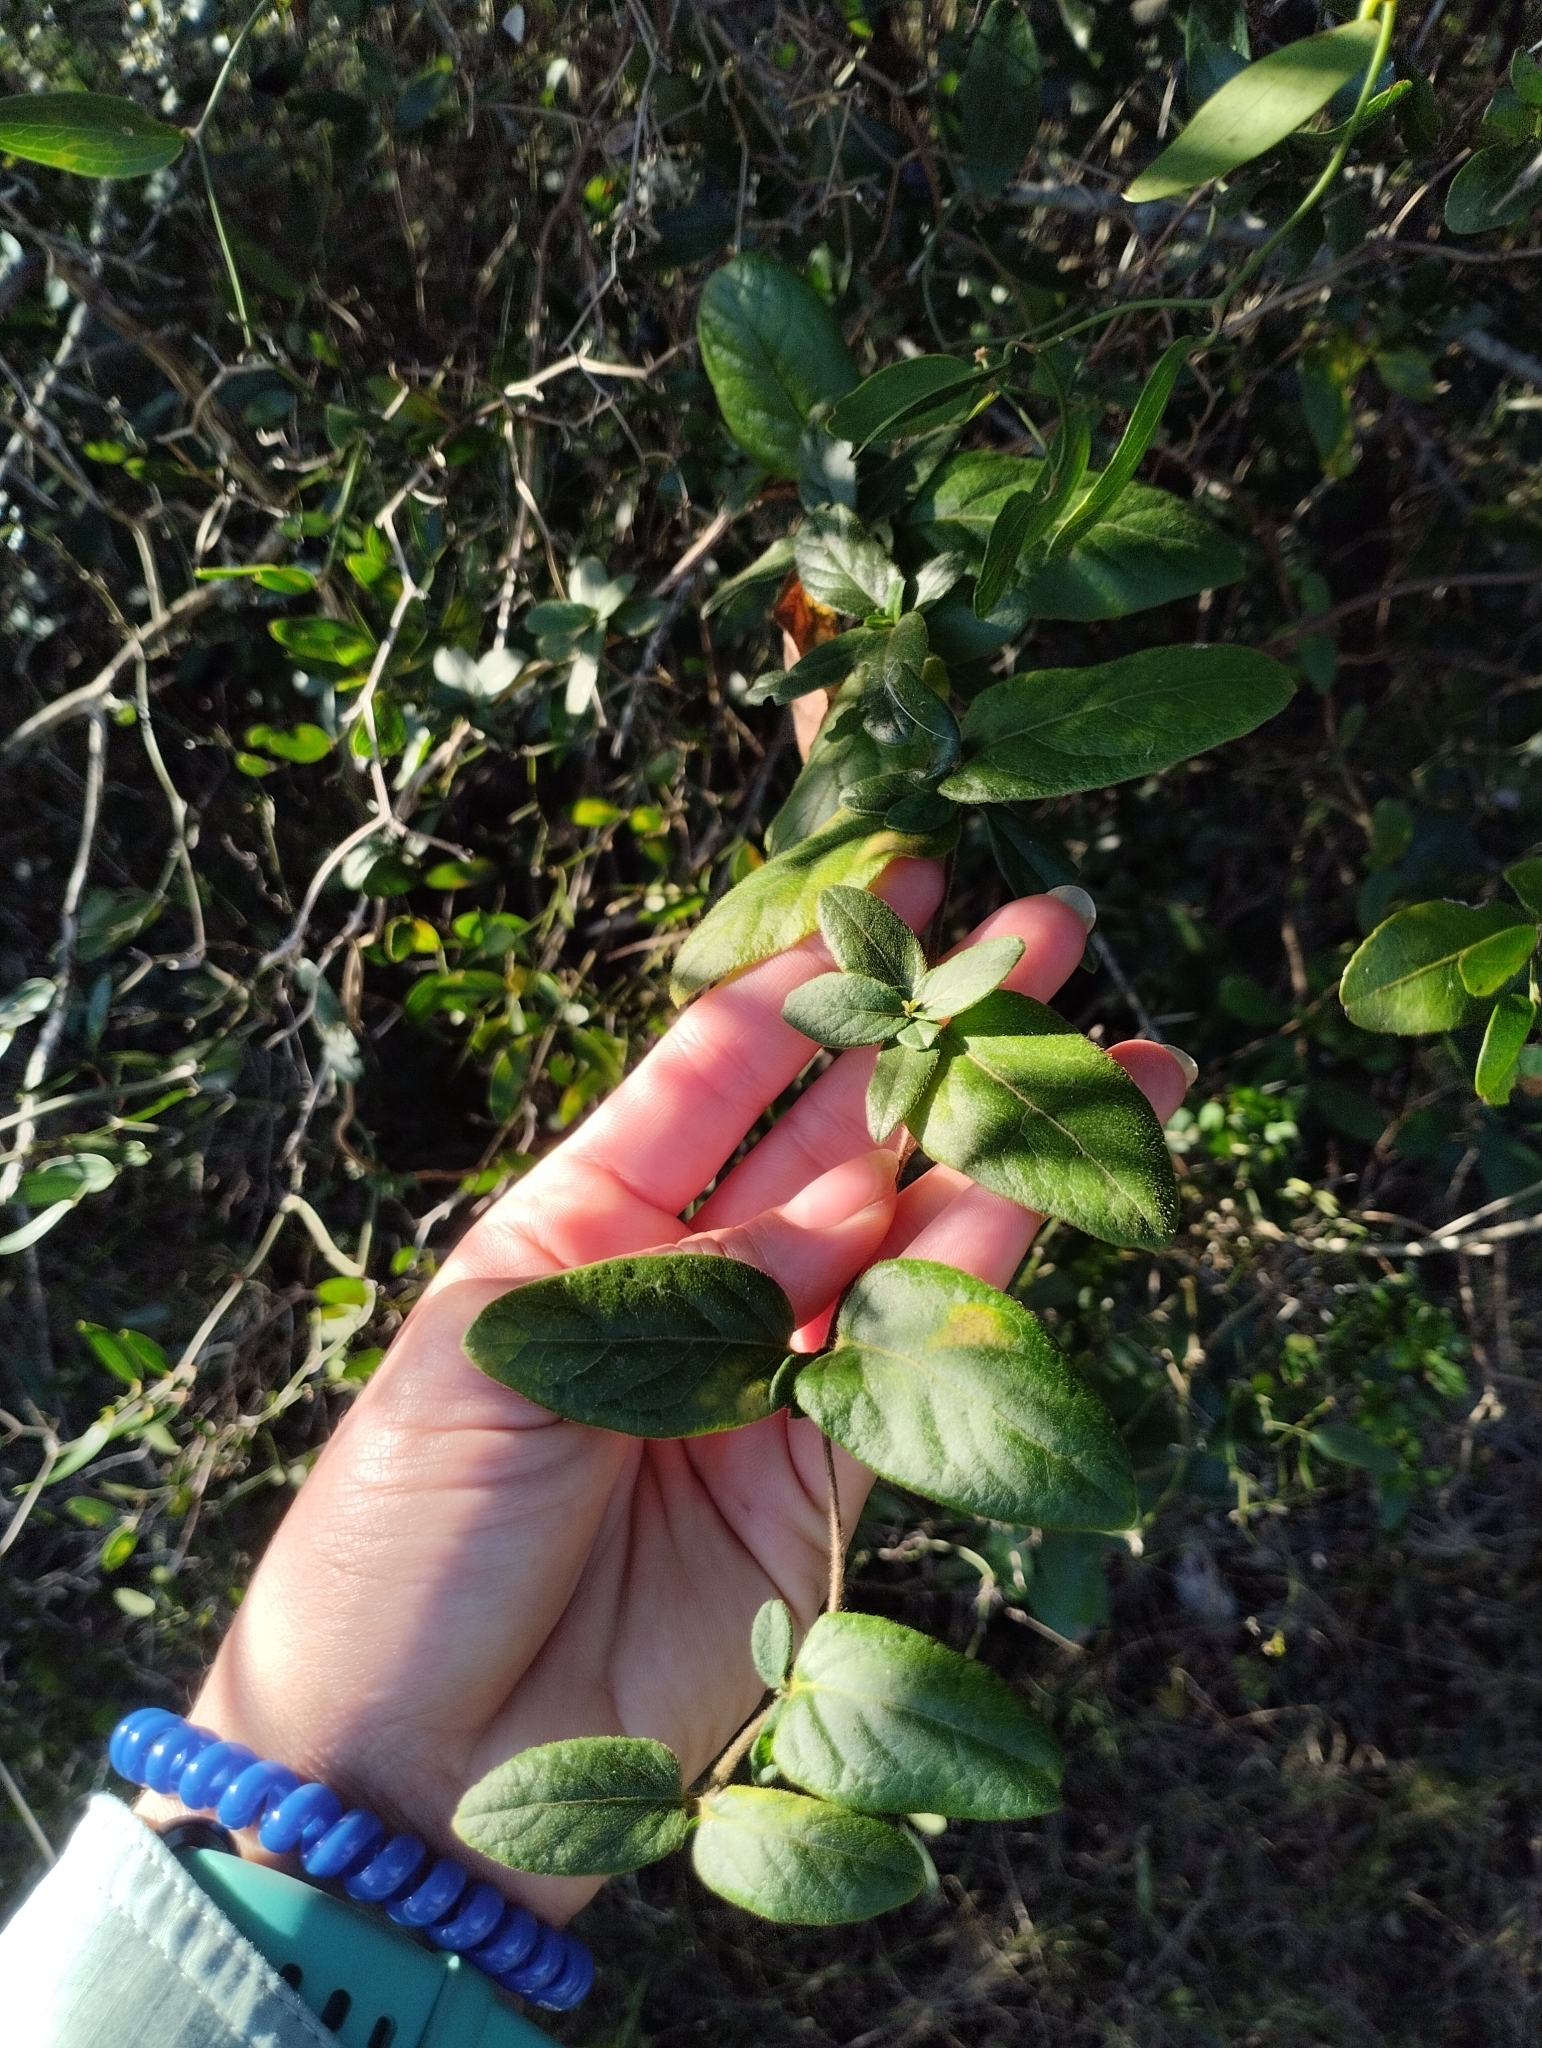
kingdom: Plantae
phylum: Tracheophyta
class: Magnoliopsida
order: Dipsacales
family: Caprifoliaceae
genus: Lonicera
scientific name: Lonicera japonica
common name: Japanese honeysuckle
